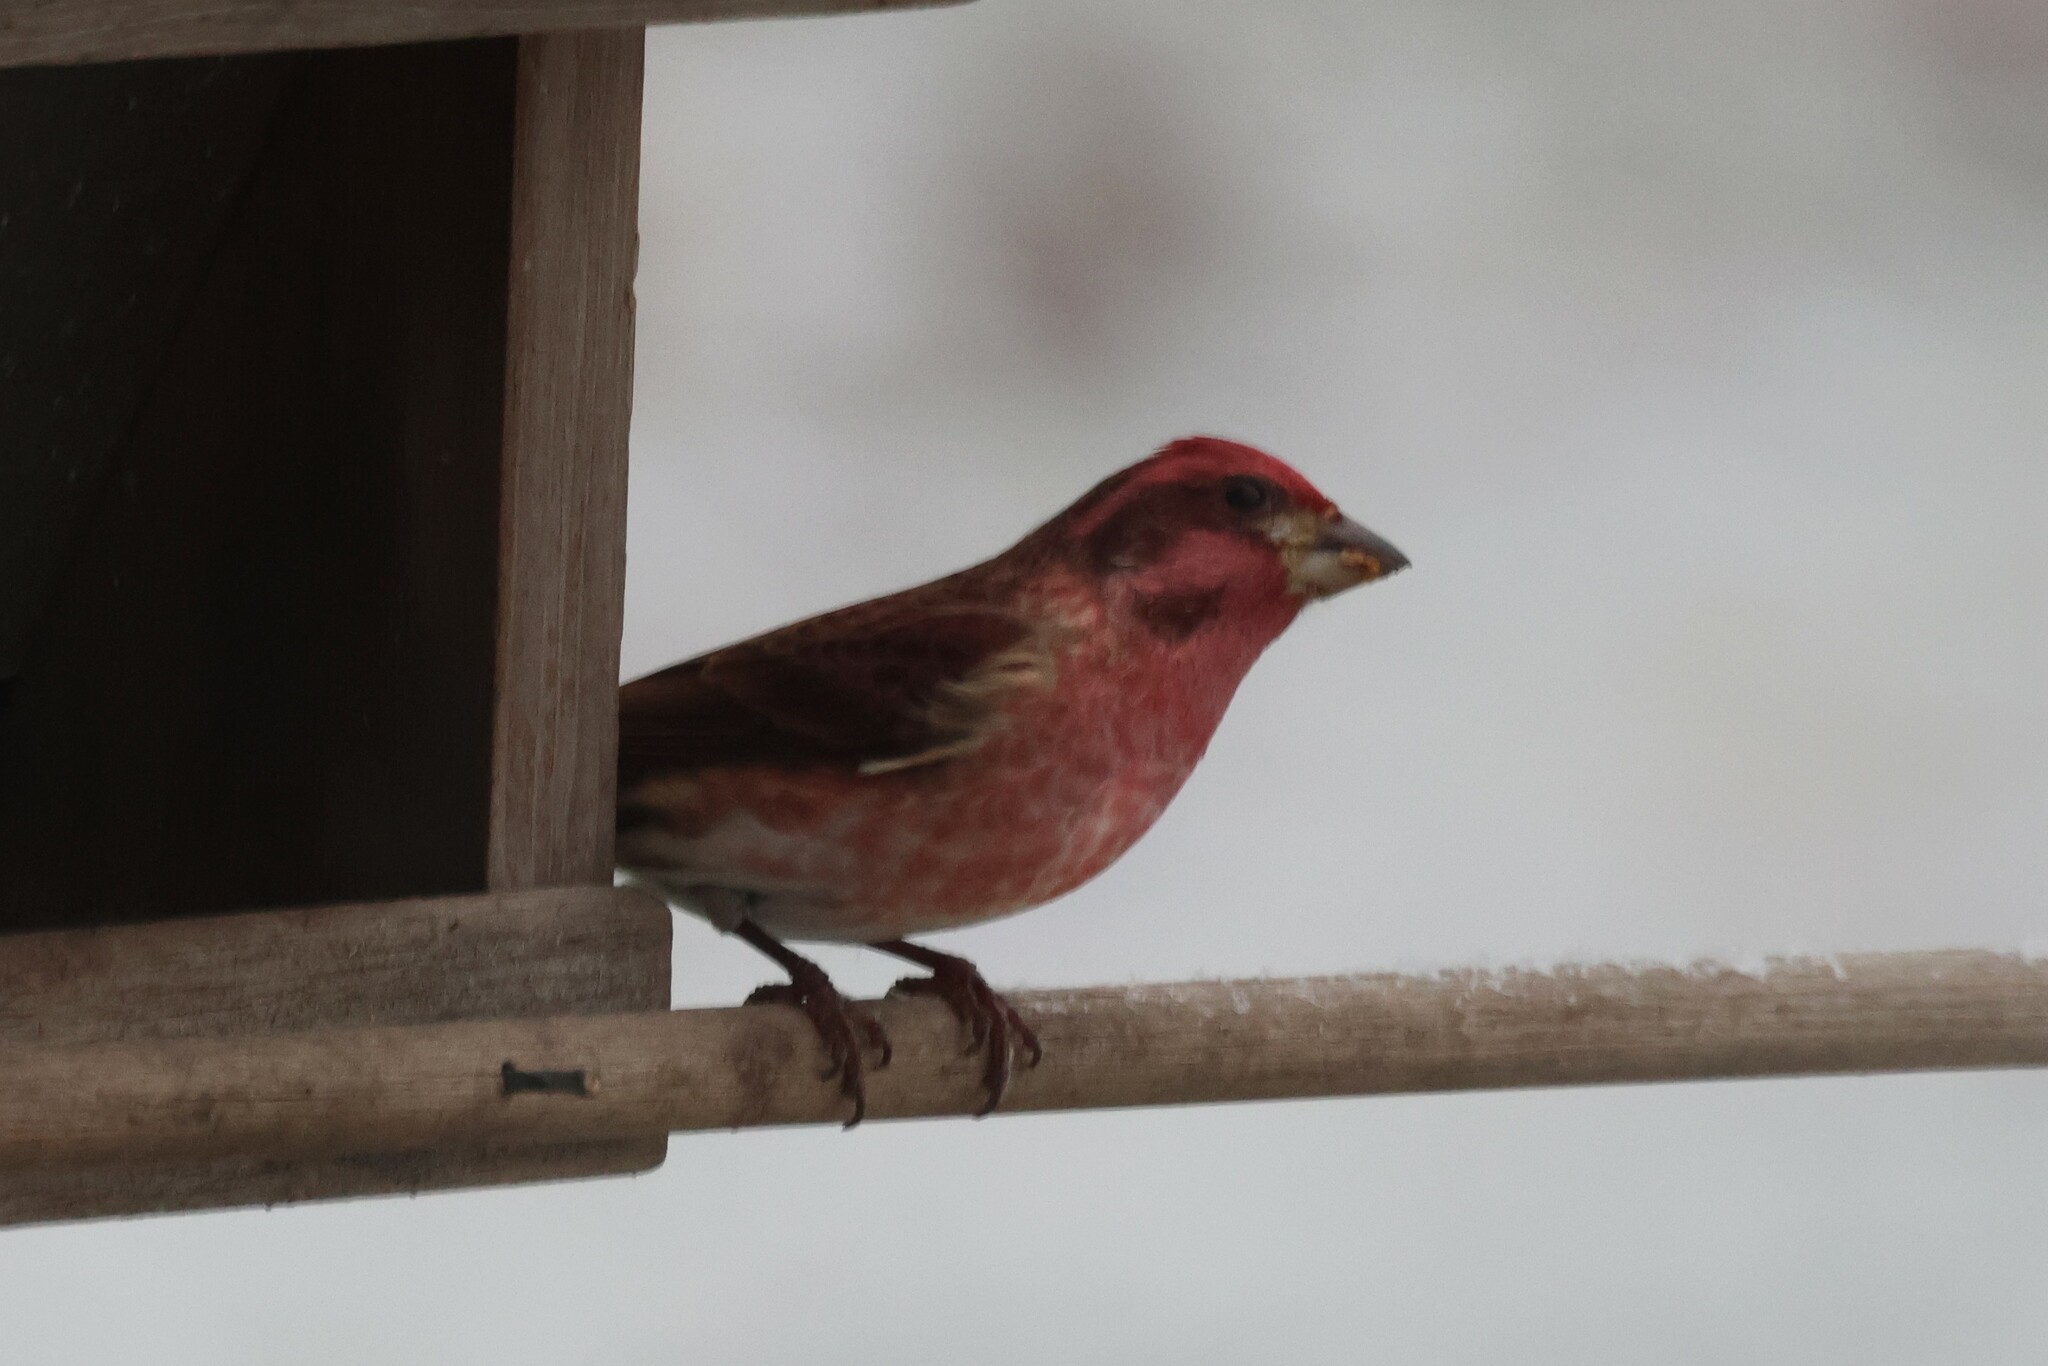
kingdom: Animalia
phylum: Chordata
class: Aves
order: Passeriformes
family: Fringillidae
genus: Haemorhous
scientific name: Haemorhous purpureus
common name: Purple finch
